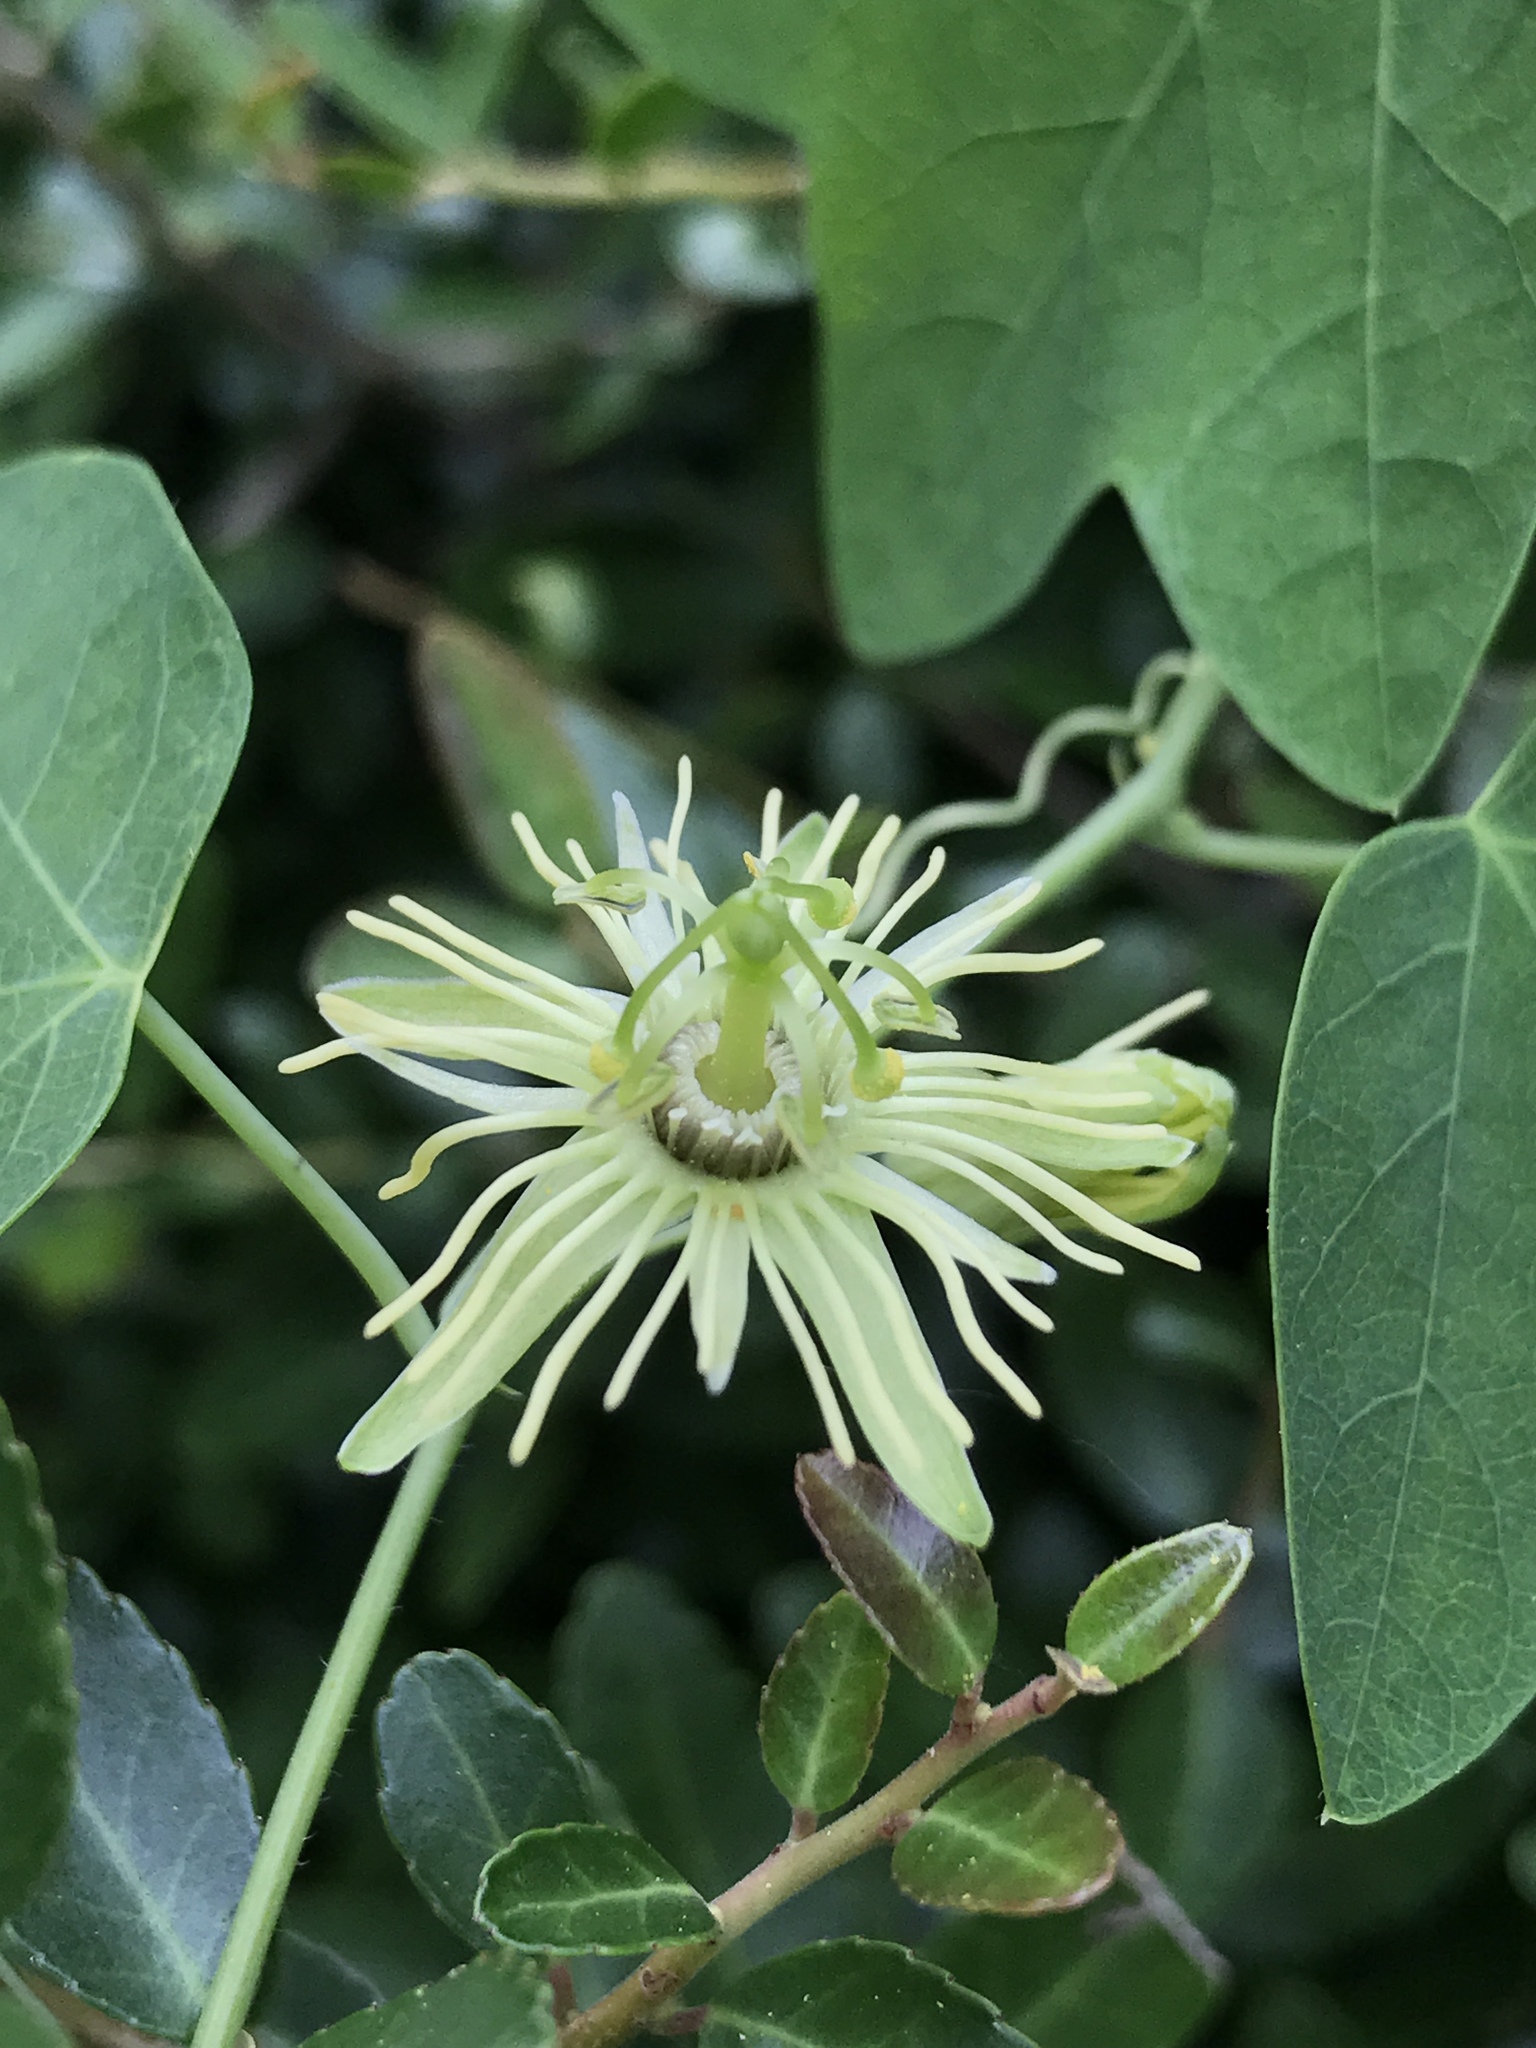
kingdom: Plantae
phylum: Tracheophyta
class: Magnoliopsida
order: Malpighiales
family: Passifloraceae
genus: Passiflora
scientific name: Passiflora lutea
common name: Yellow passionflower
